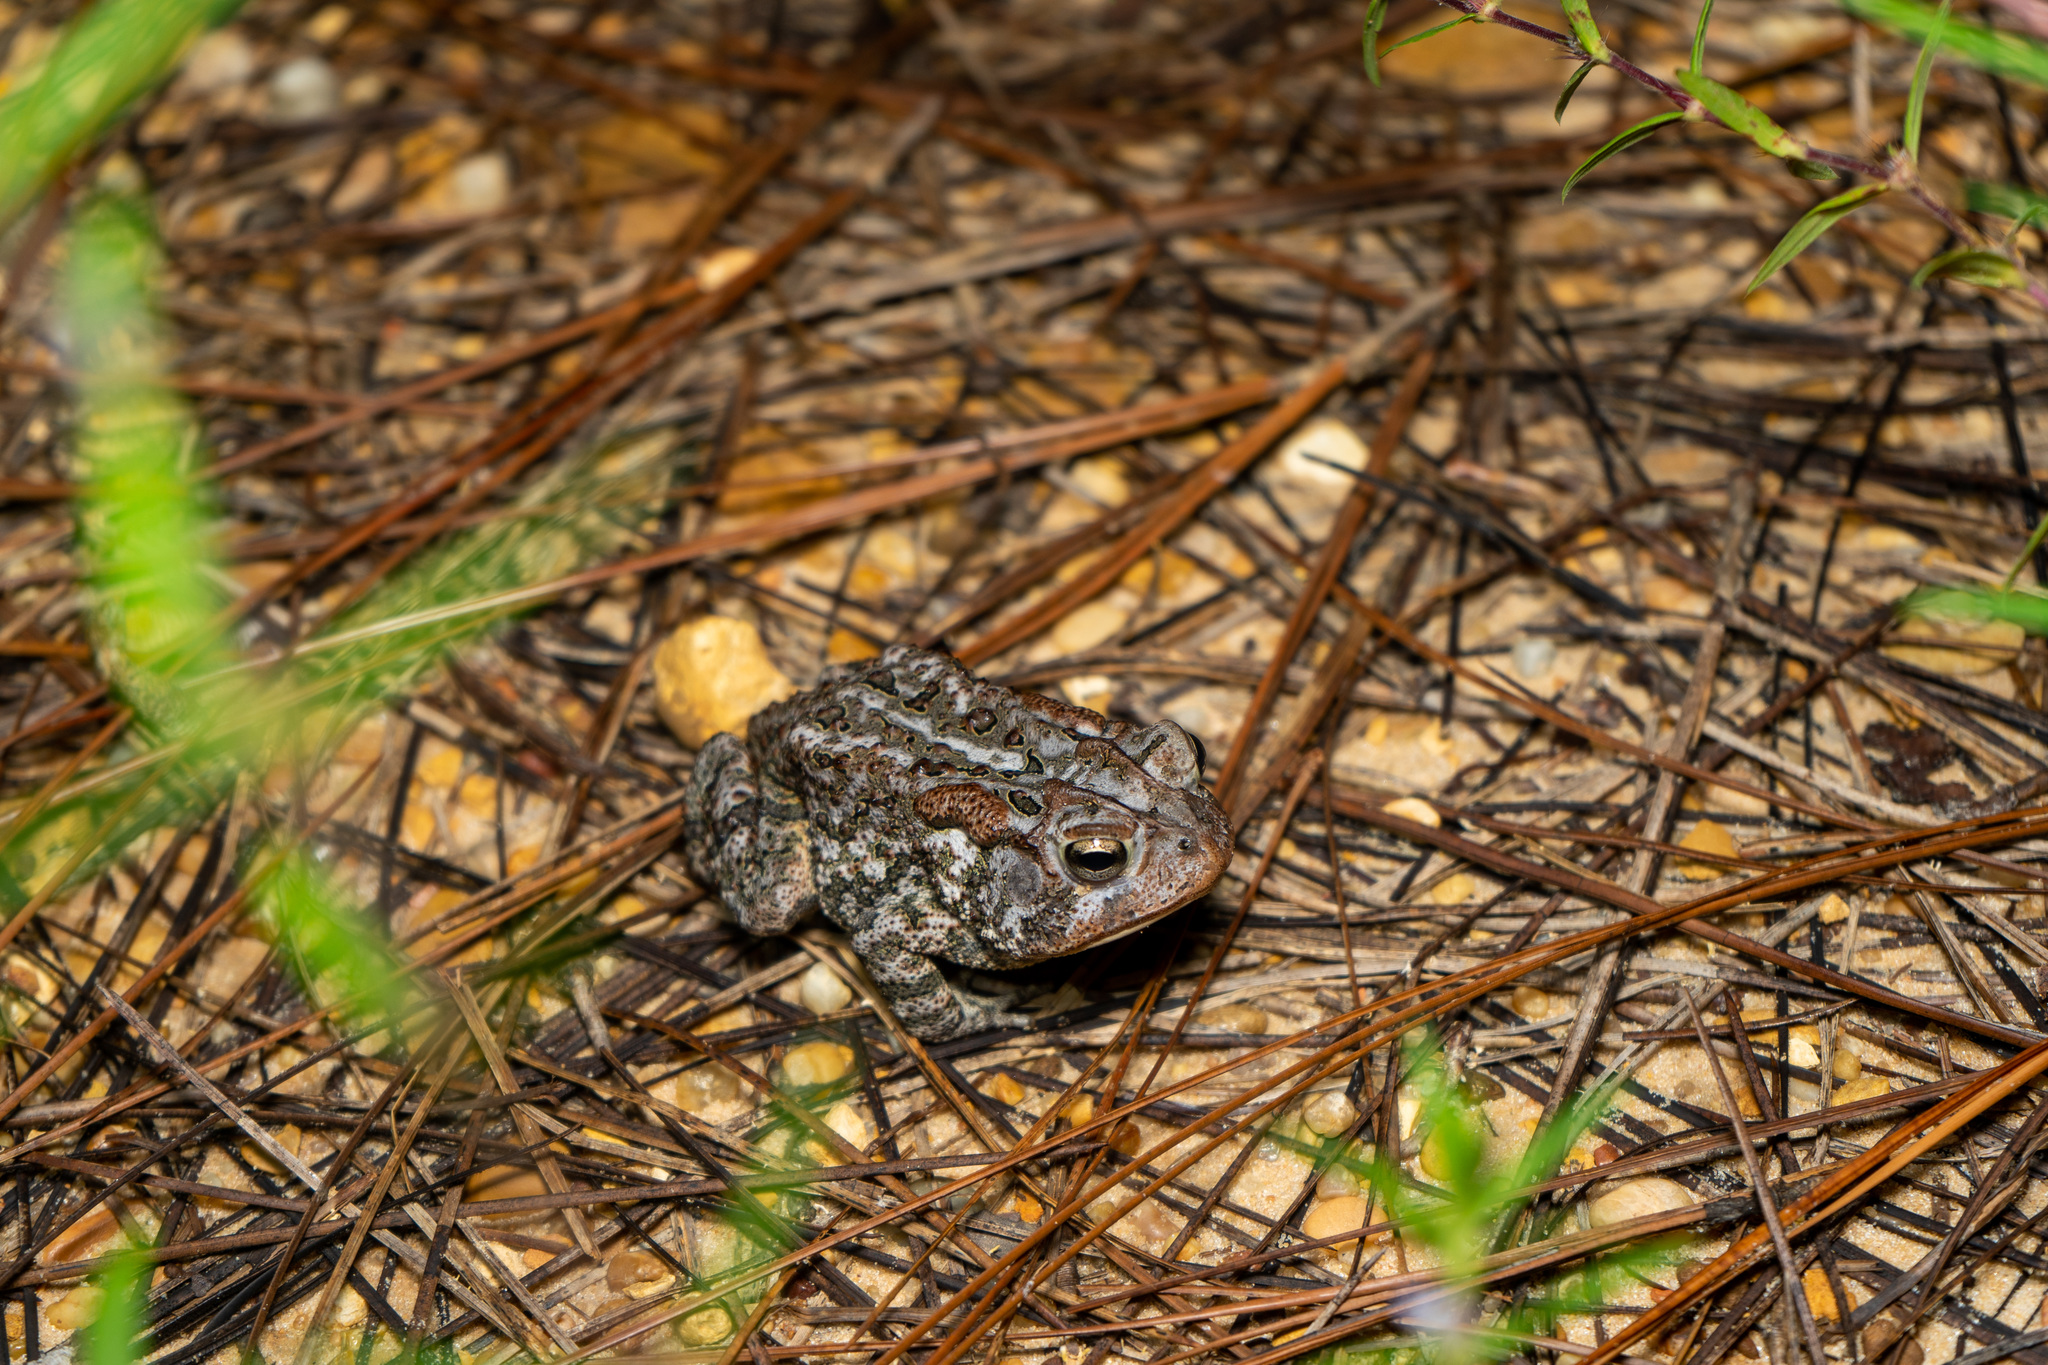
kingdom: Animalia
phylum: Chordata
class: Amphibia
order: Anura
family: Bufonidae
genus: Anaxyrus
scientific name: Anaxyrus terrestris
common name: Southern toad
